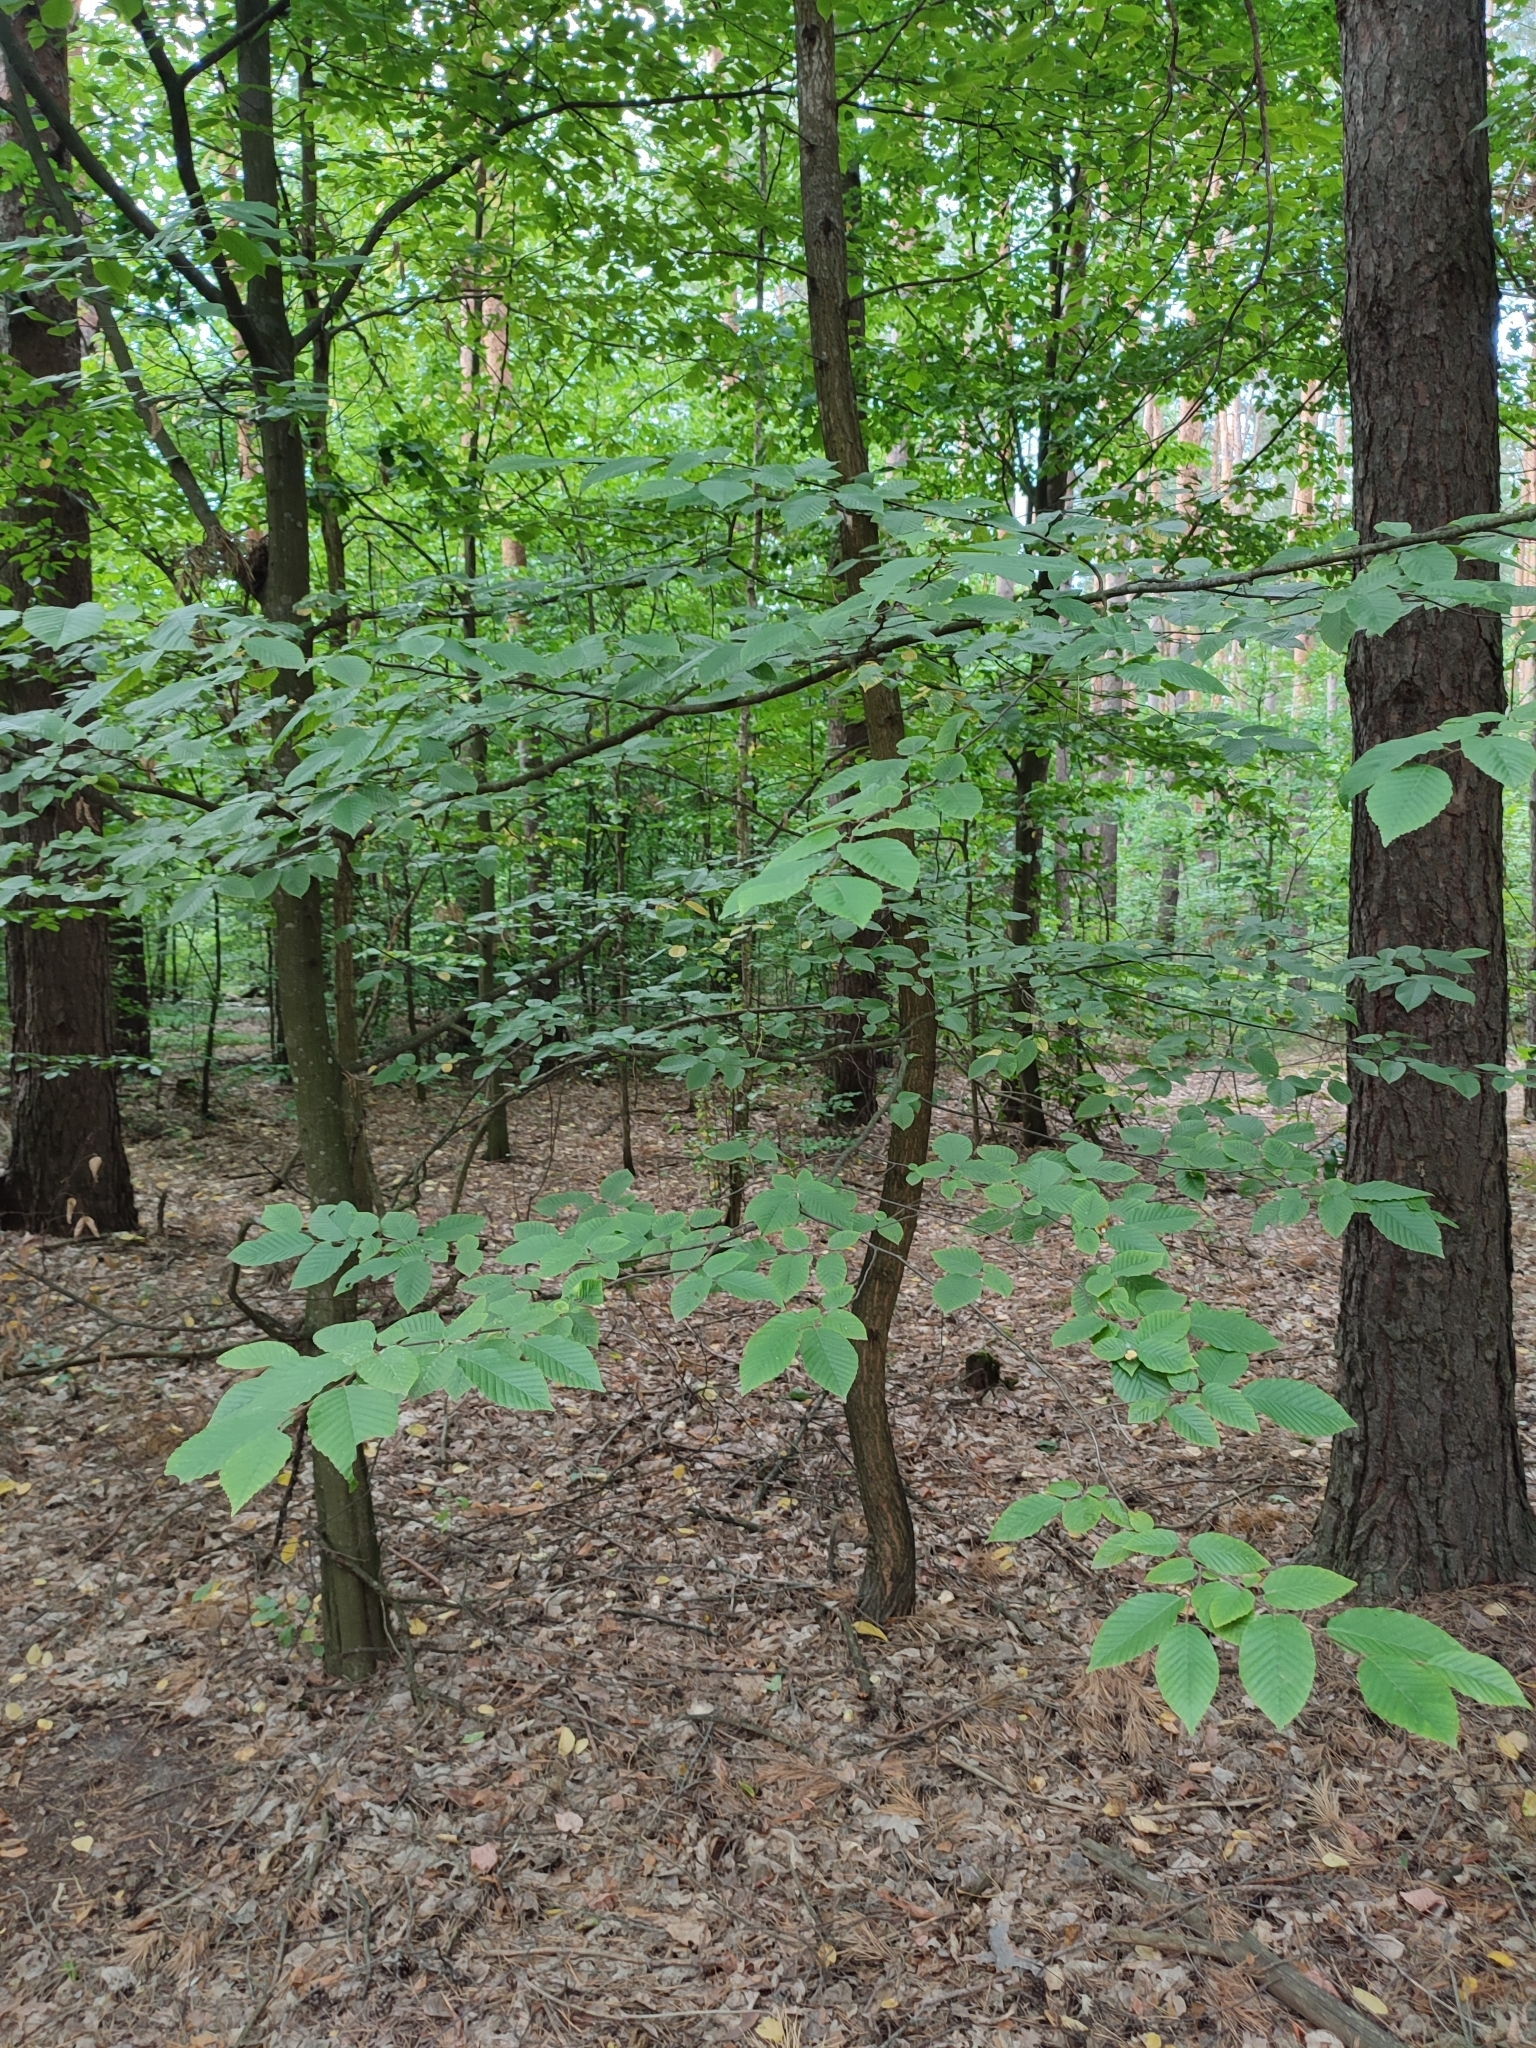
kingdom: Plantae
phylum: Tracheophyta
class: Magnoliopsida
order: Fagales
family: Betulaceae
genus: Carpinus
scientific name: Carpinus betulus
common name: Hornbeam
